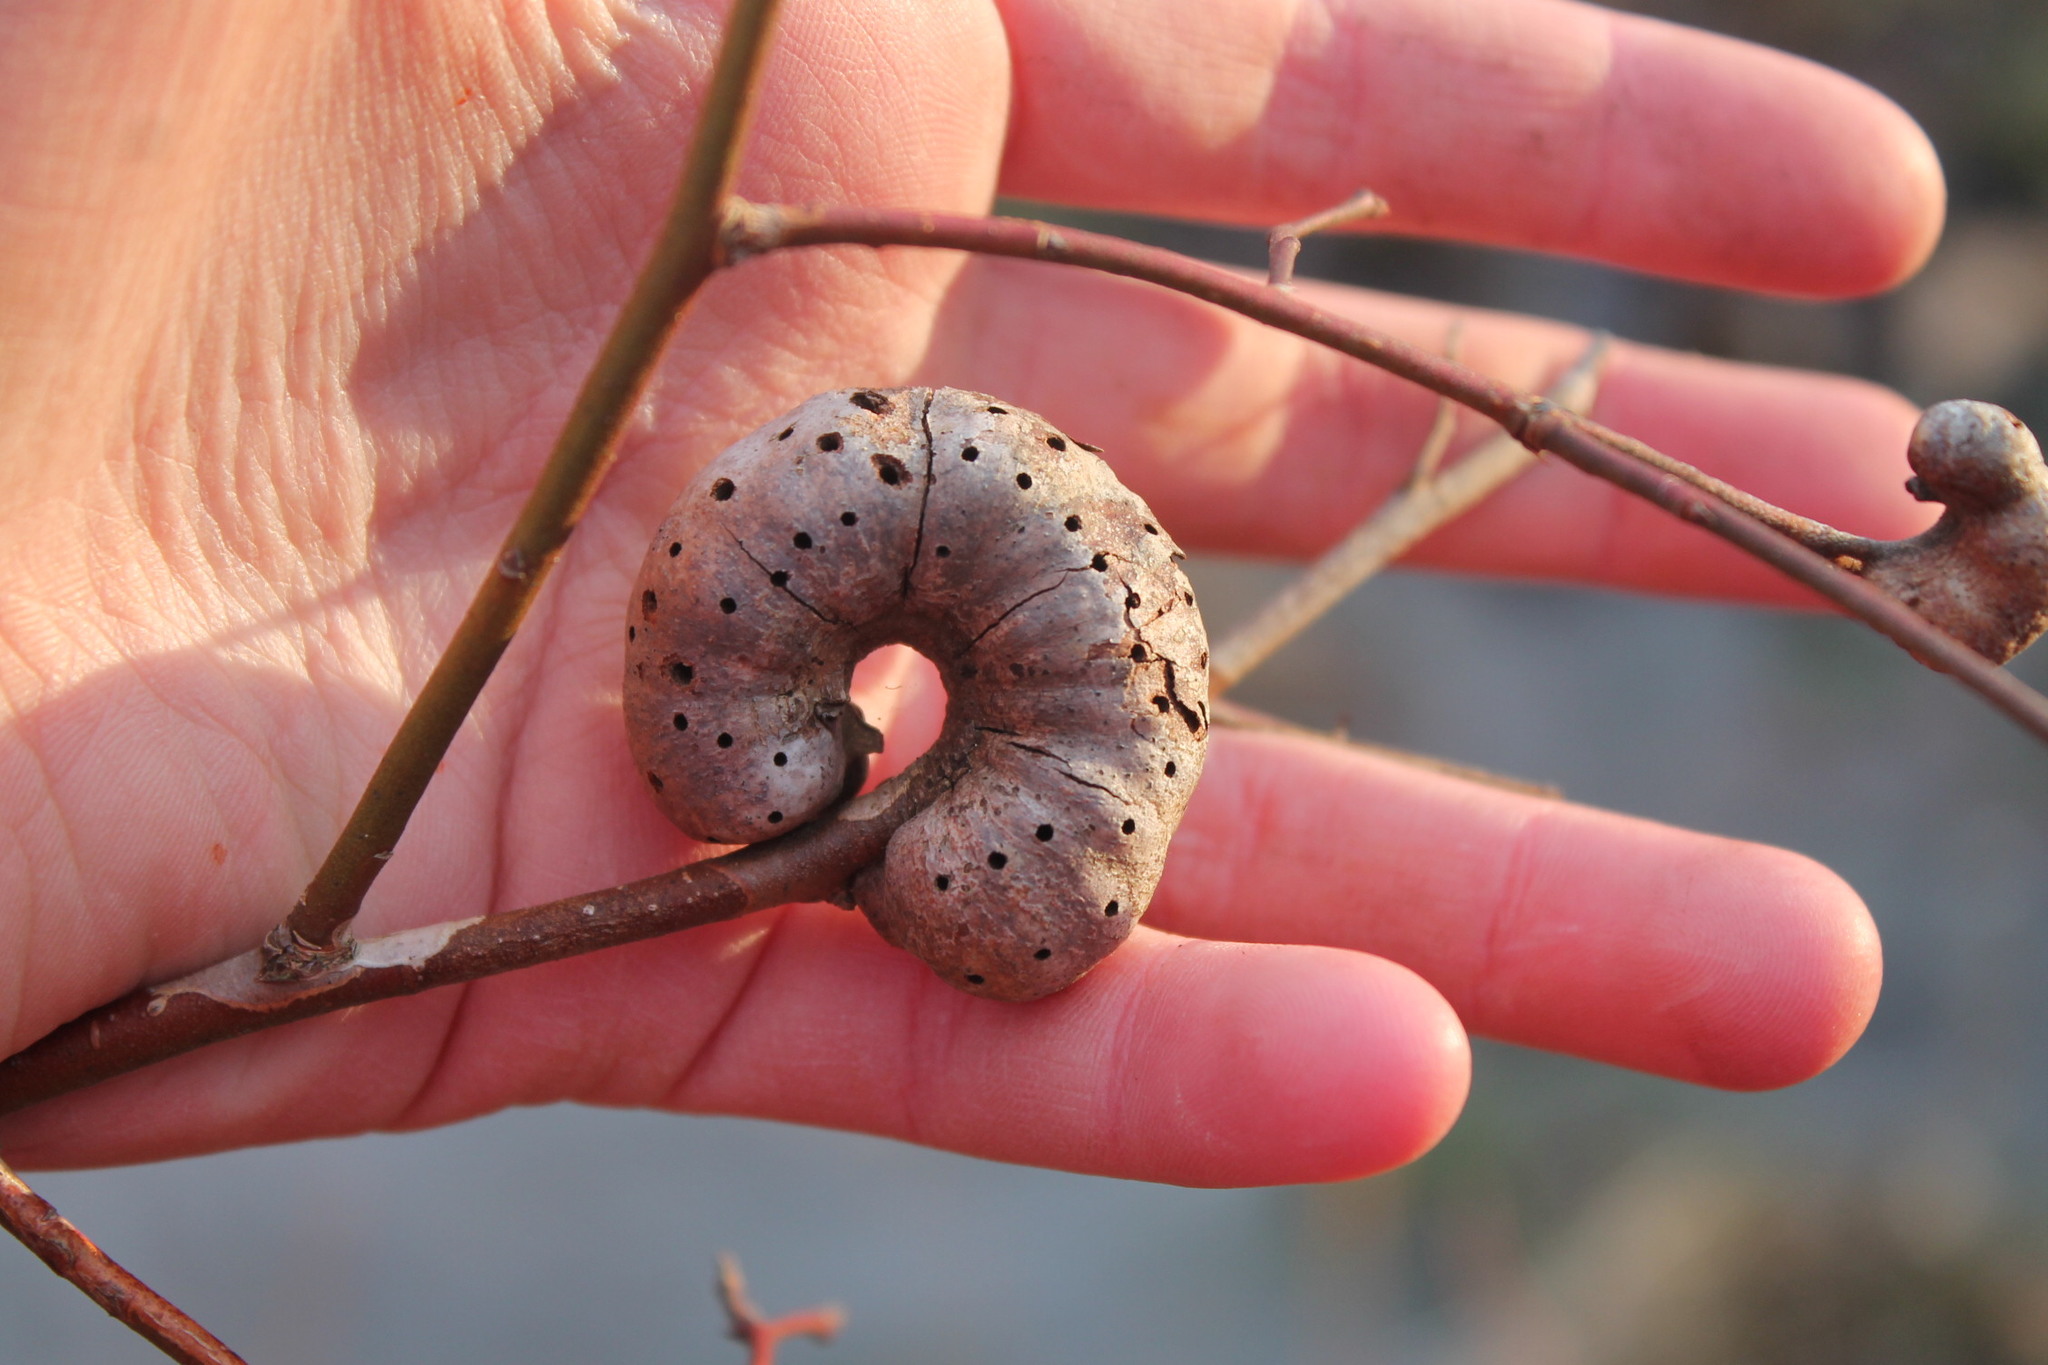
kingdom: Animalia
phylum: Arthropoda
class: Insecta
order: Hymenoptera
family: Pteromalidae
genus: Hemadas
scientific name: Hemadas nubilipennis
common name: Blueberry stem gall wasp
